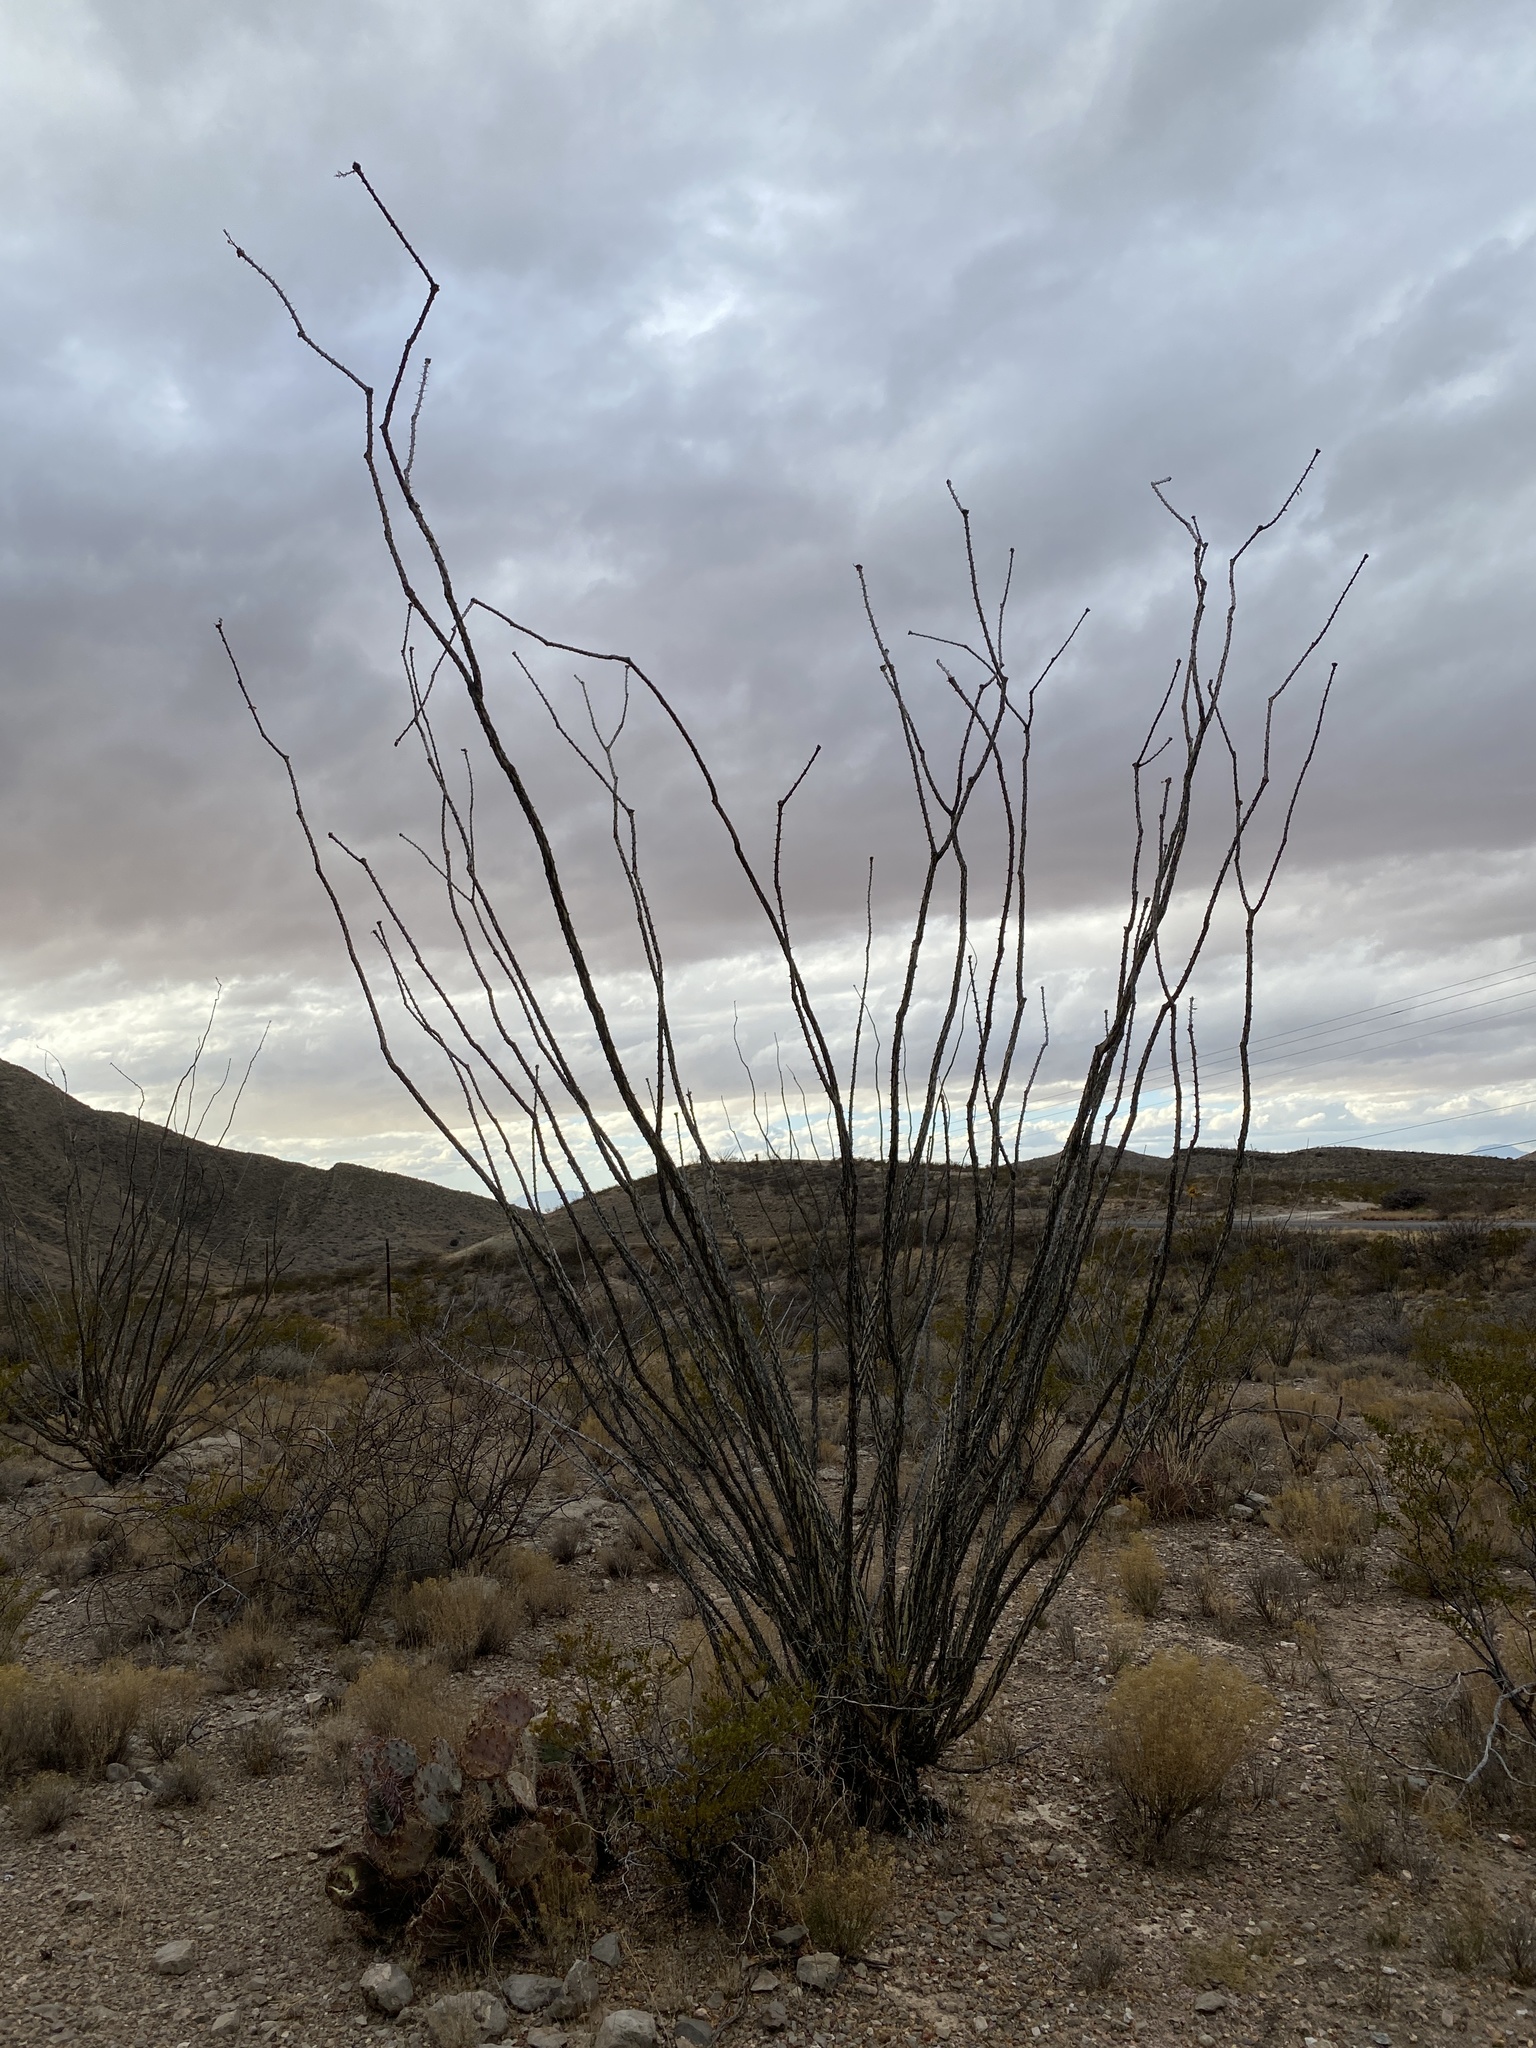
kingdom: Plantae
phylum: Tracheophyta
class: Magnoliopsida
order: Ericales
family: Fouquieriaceae
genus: Fouquieria
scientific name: Fouquieria splendens
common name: Vine-cactus
